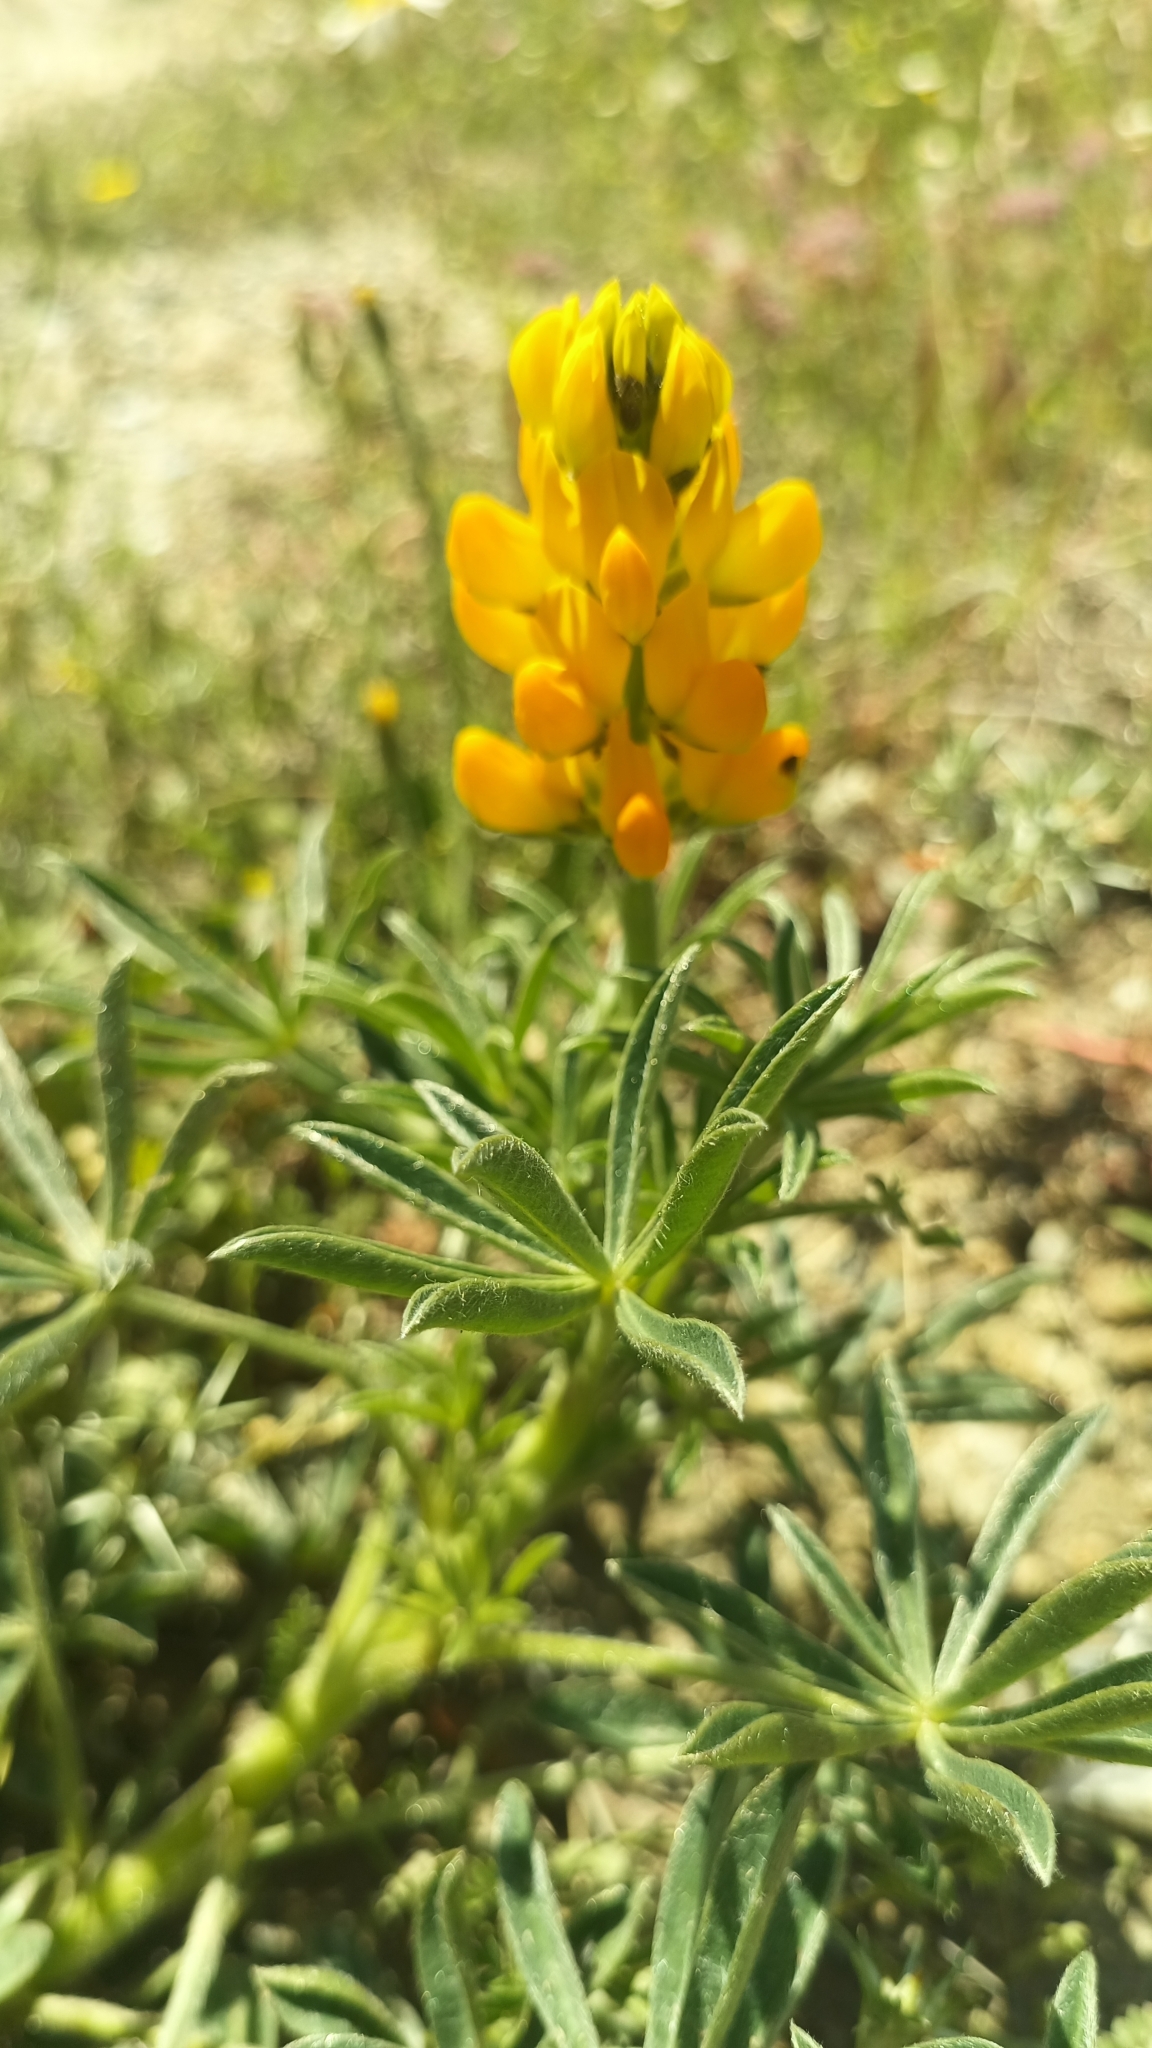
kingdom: Plantae
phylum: Tracheophyta
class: Magnoliopsida
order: Fabales
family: Fabaceae
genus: Lupinus
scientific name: Lupinus luteus
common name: European yellow lupine
